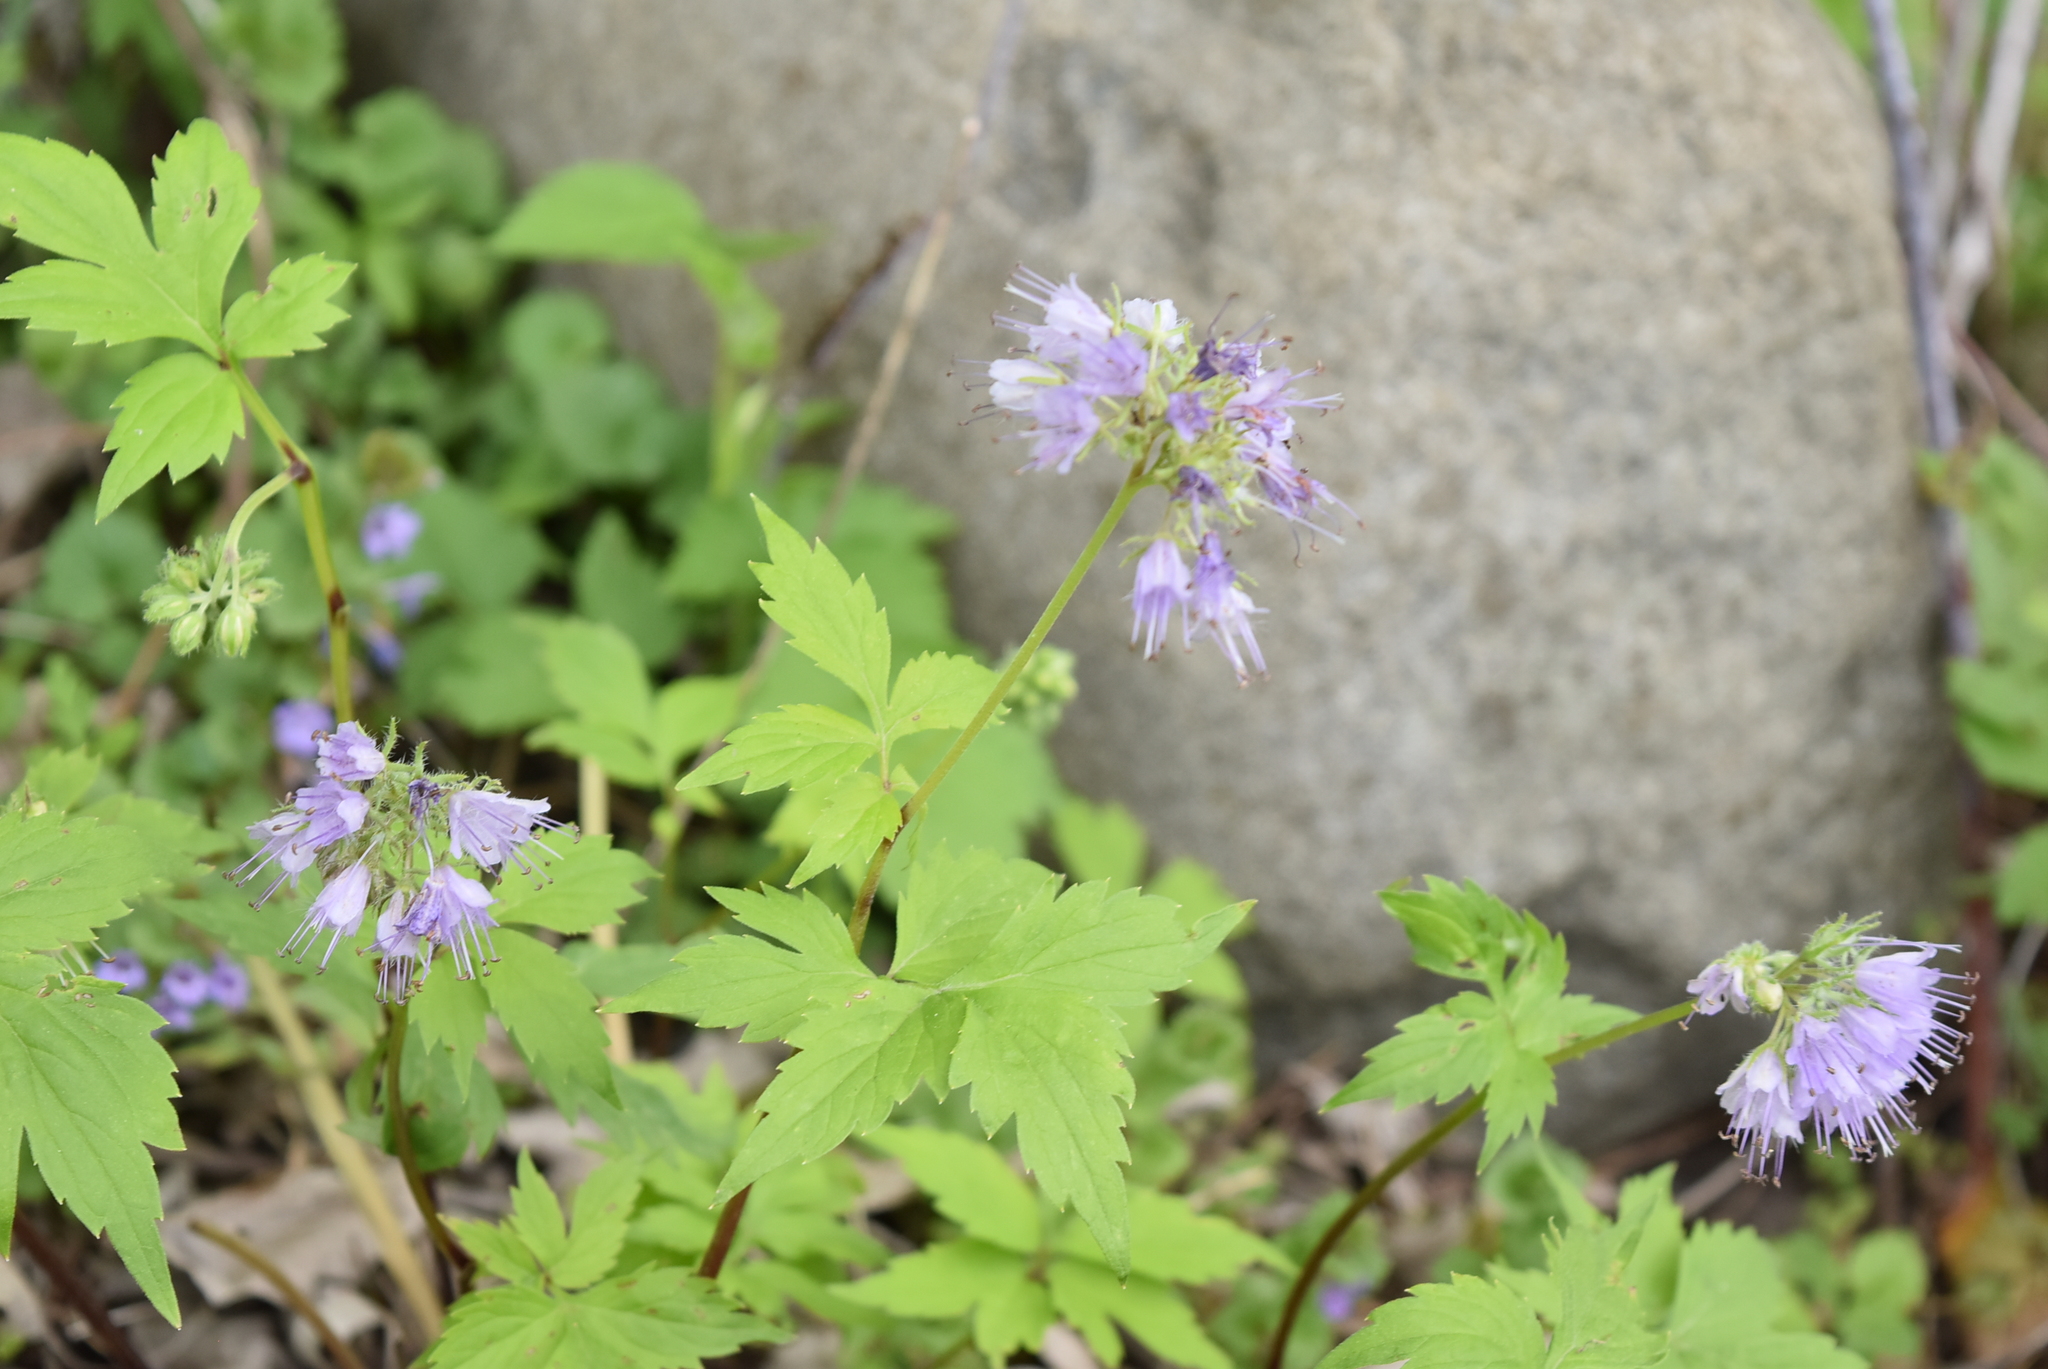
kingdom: Plantae
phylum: Tracheophyta
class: Magnoliopsida
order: Boraginales
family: Hydrophyllaceae
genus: Hydrophyllum
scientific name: Hydrophyllum virginianum
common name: Virginia waterleaf
